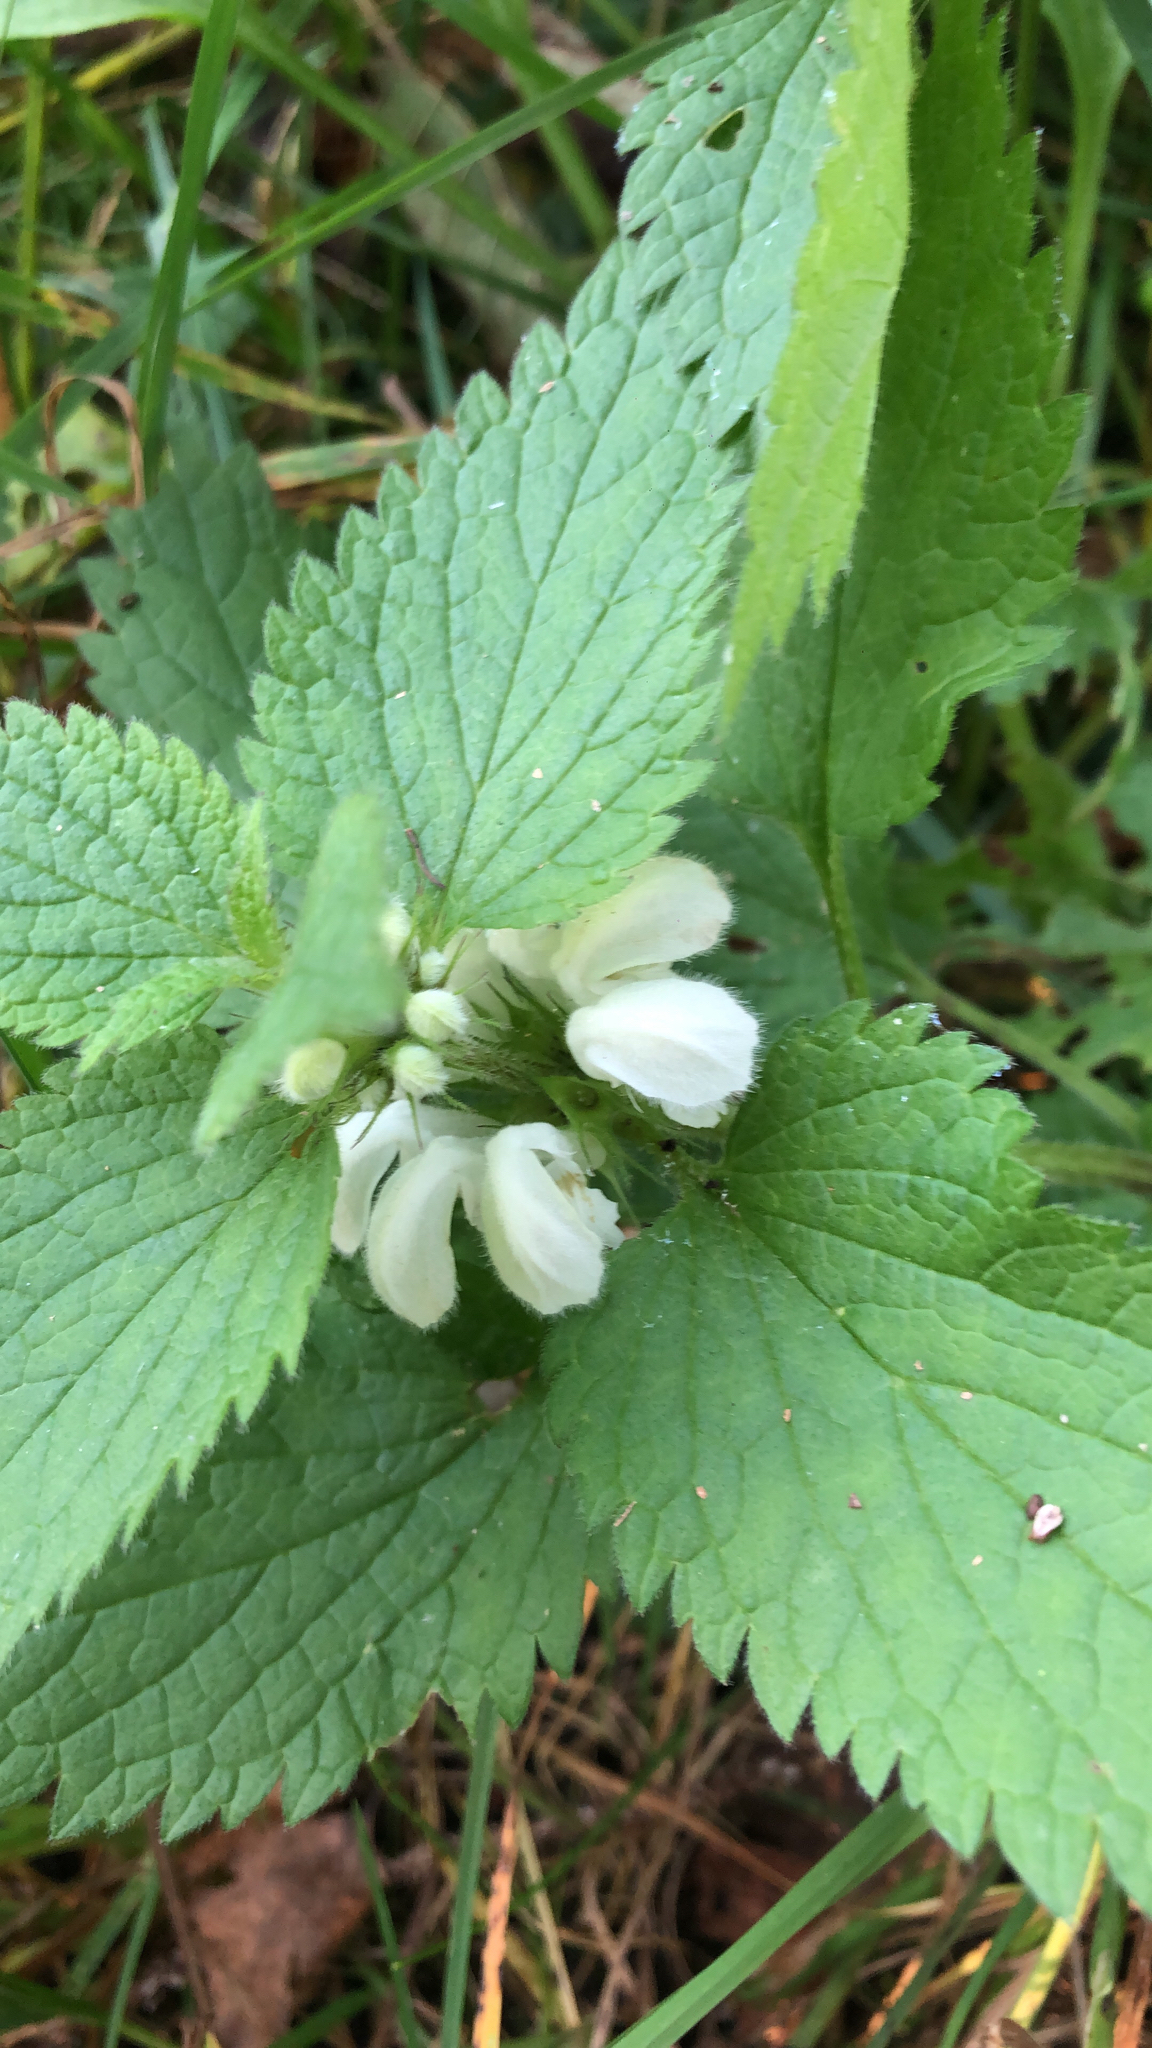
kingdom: Plantae
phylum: Tracheophyta
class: Magnoliopsida
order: Lamiales
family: Lamiaceae
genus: Lamium
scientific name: Lamium album
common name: White dead-nettle
